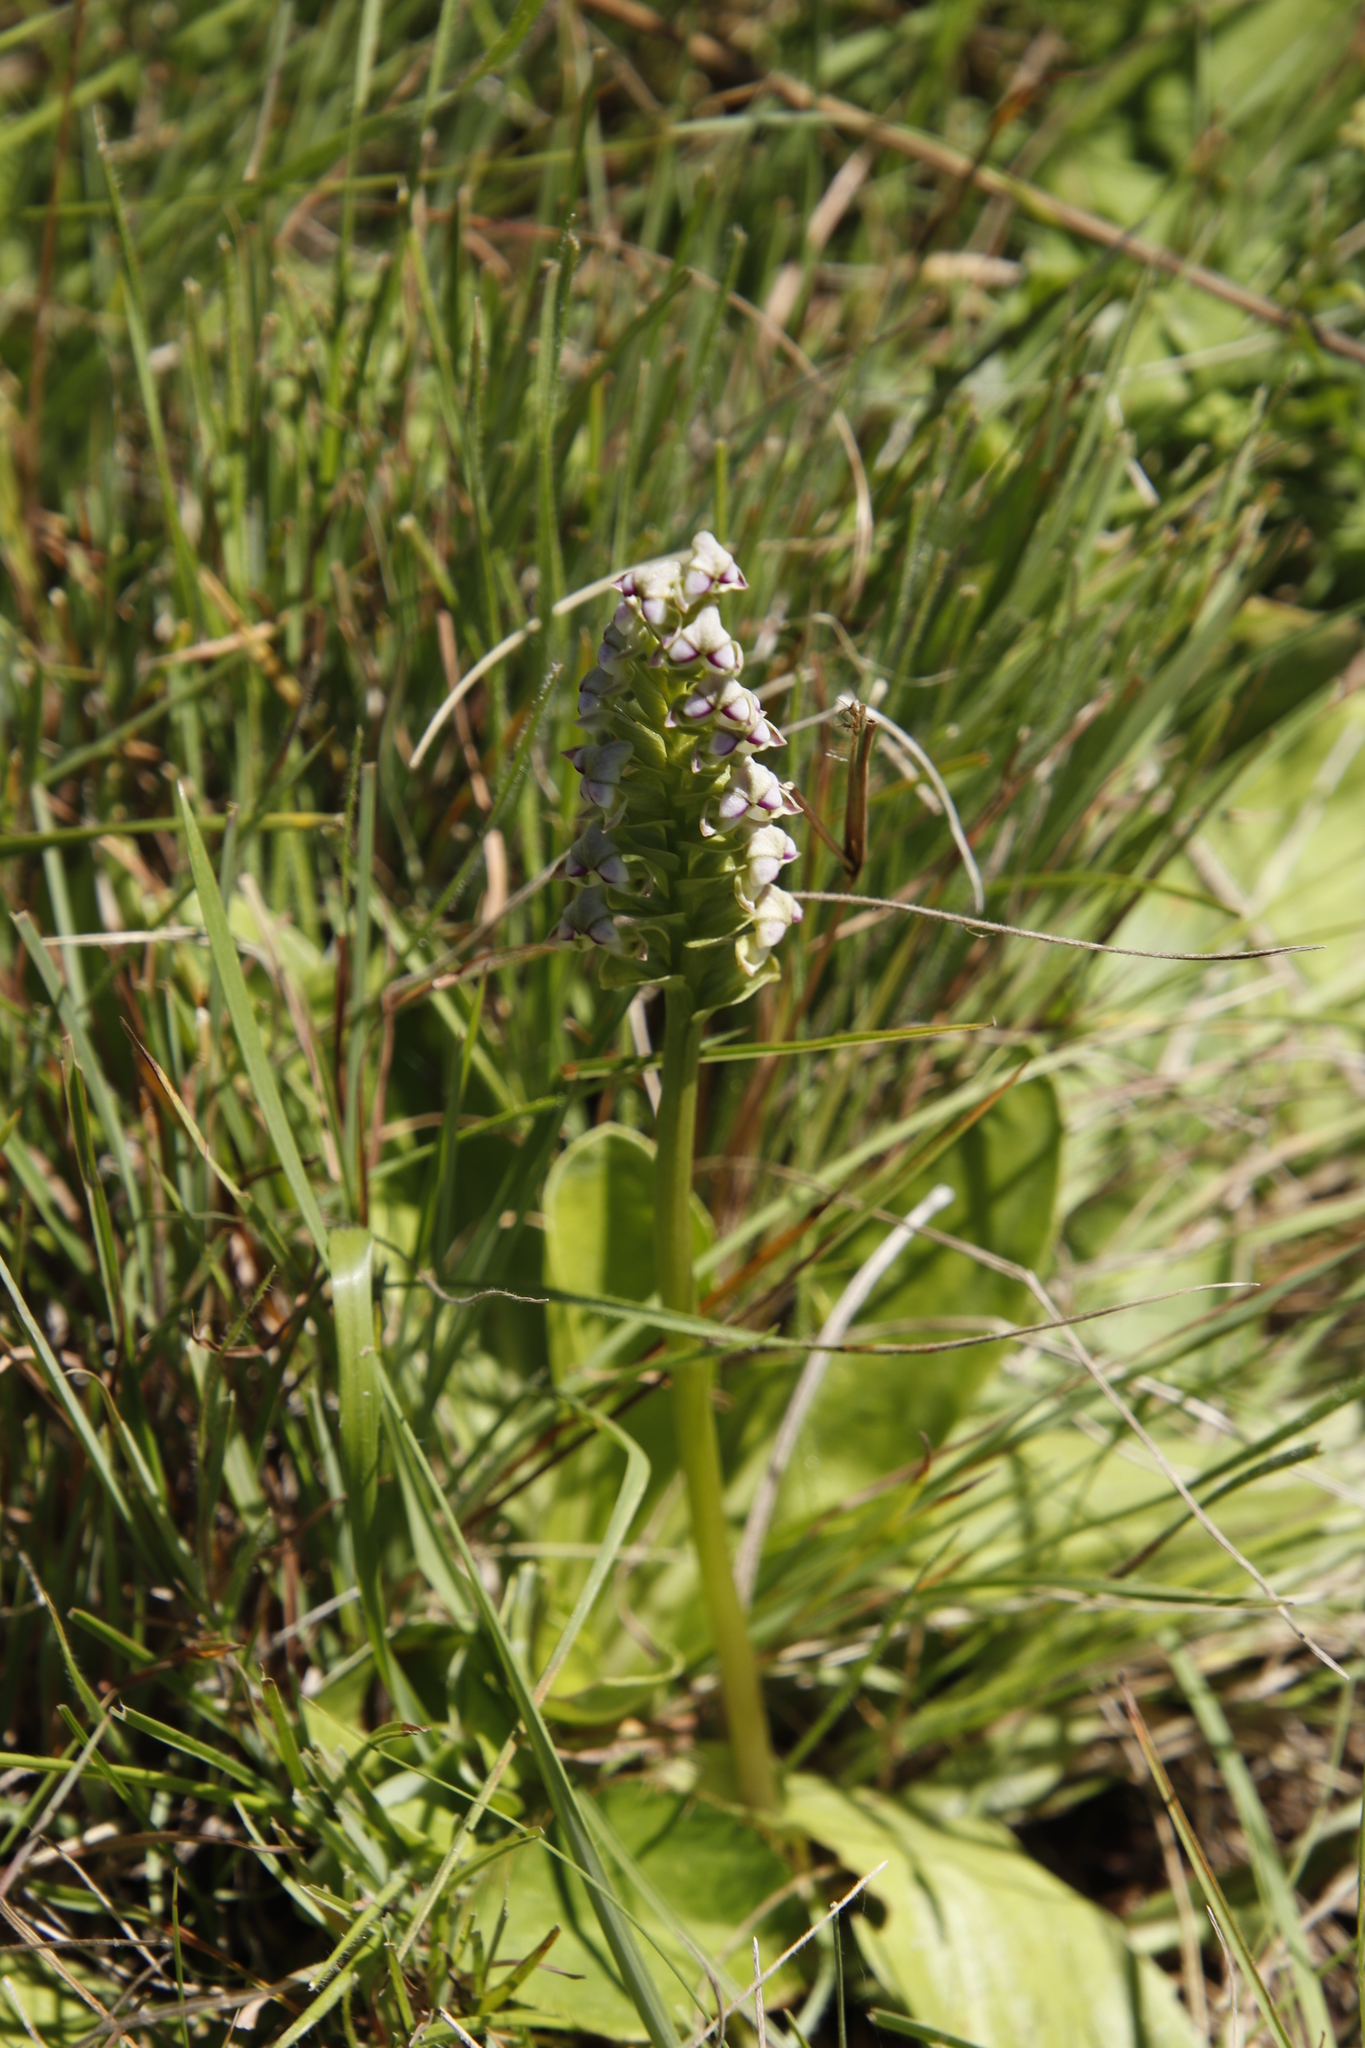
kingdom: Plantae
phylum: Tracheophyta
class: Liliopsida
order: Asparagales
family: Orchidaceae
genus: Disperis
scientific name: Disperis cardiophora
